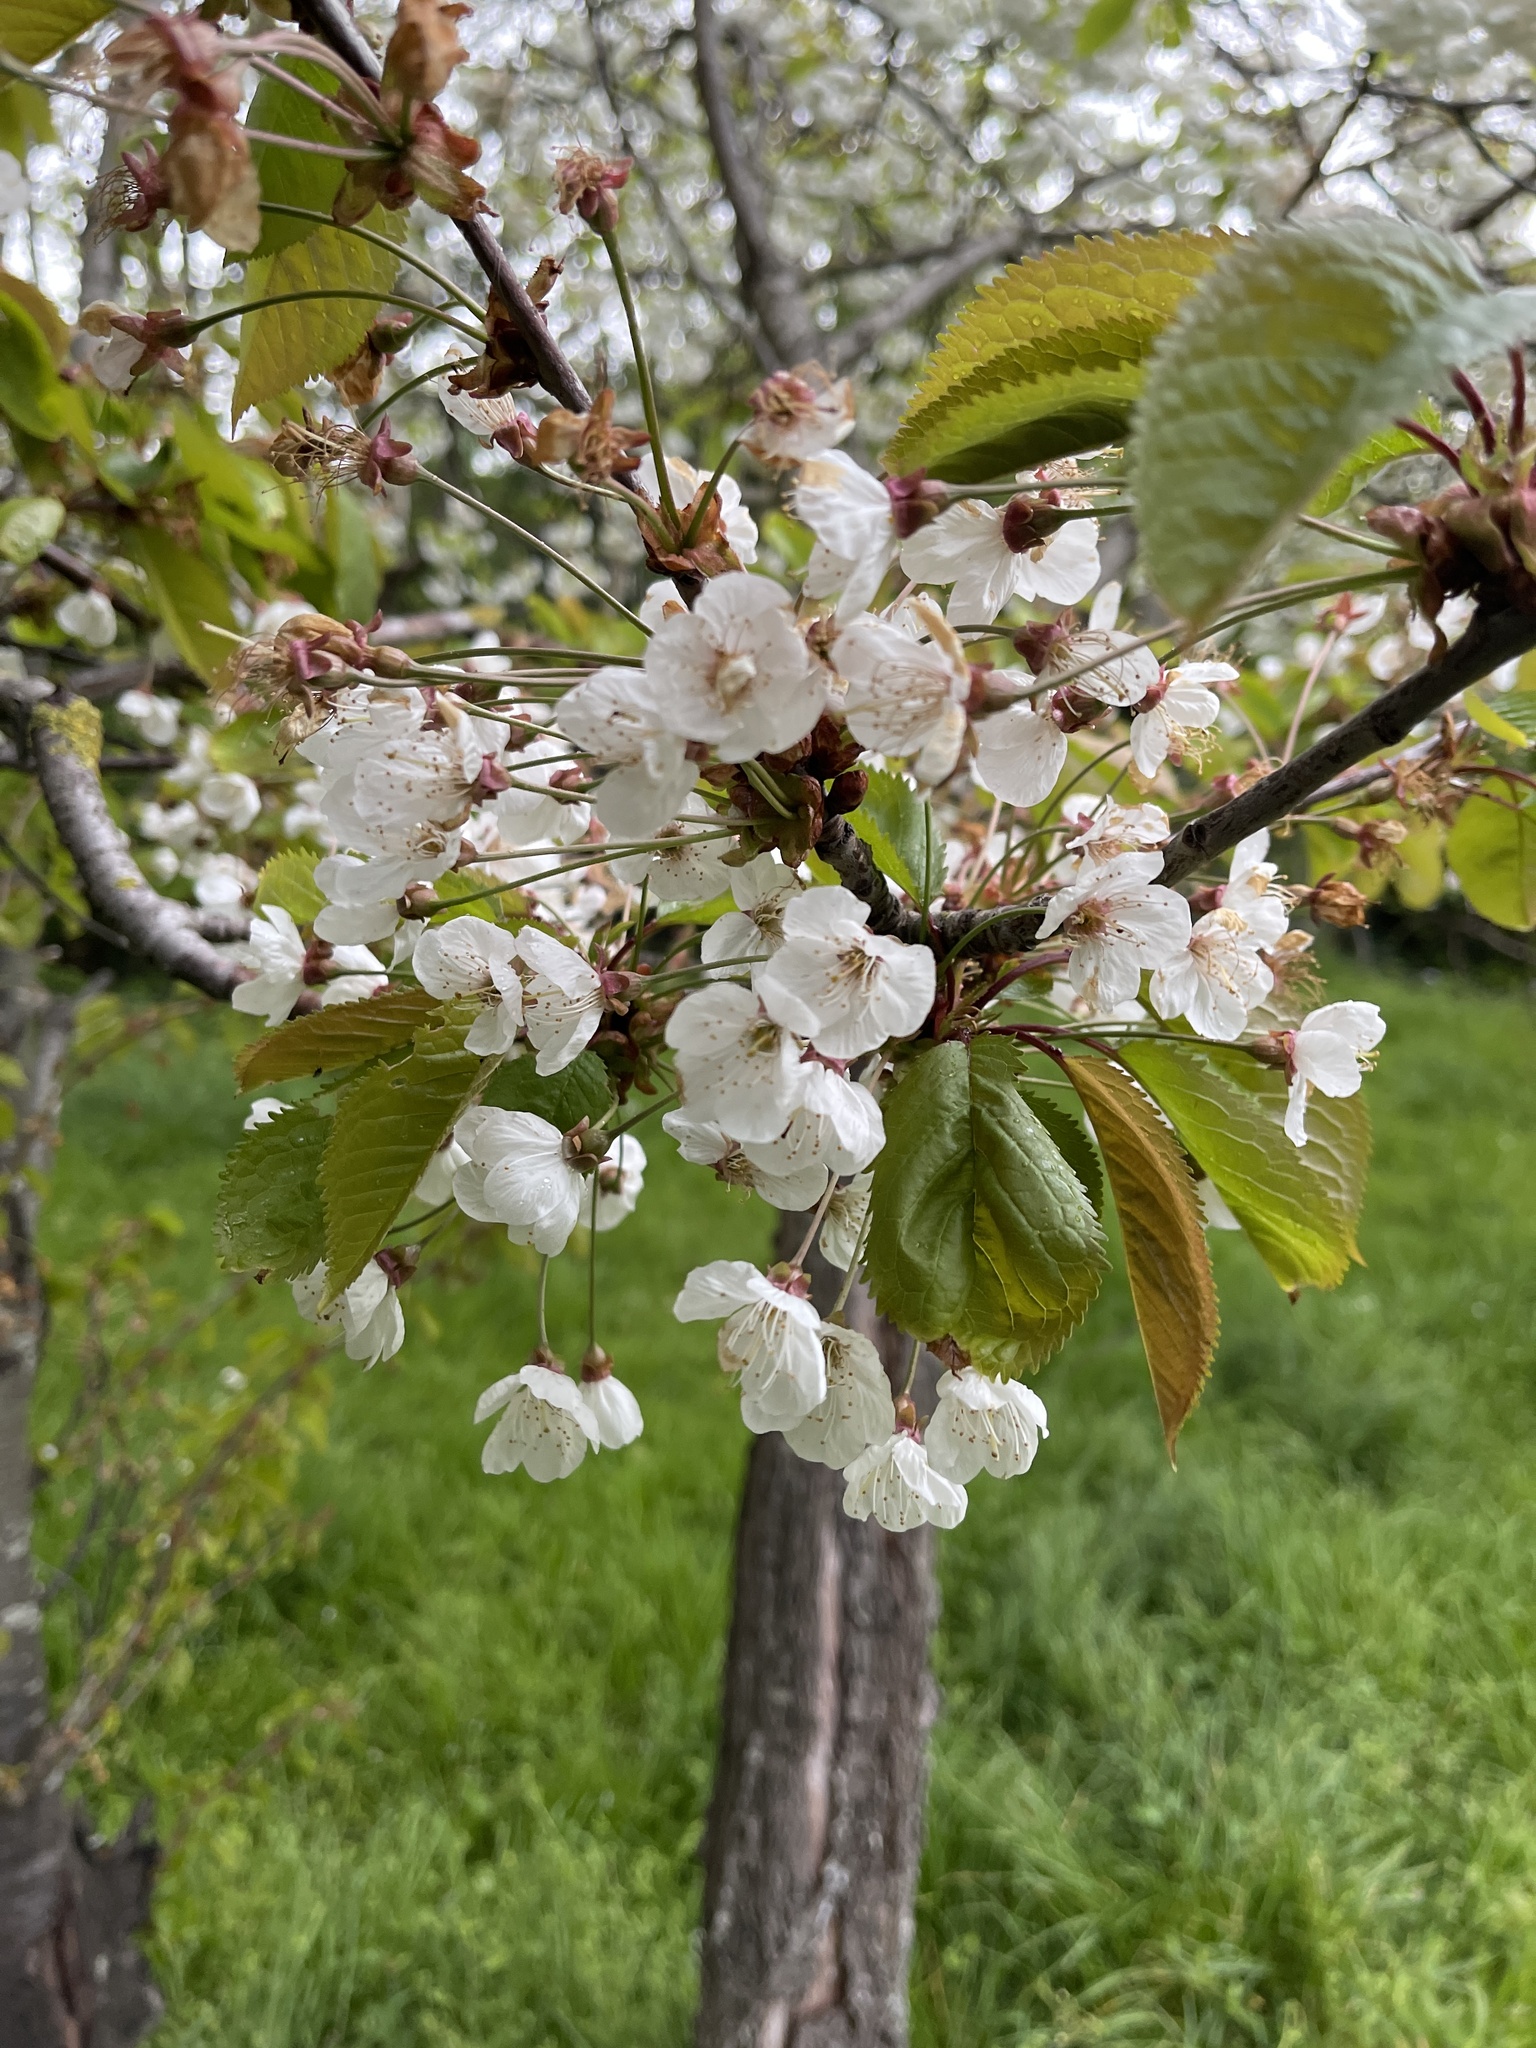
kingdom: Plantae
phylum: Tracheophyta
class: Magnoliopsida
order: Rosales
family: Rosaceae
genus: Prunus
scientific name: Prunus avium
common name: Sweet cherry
